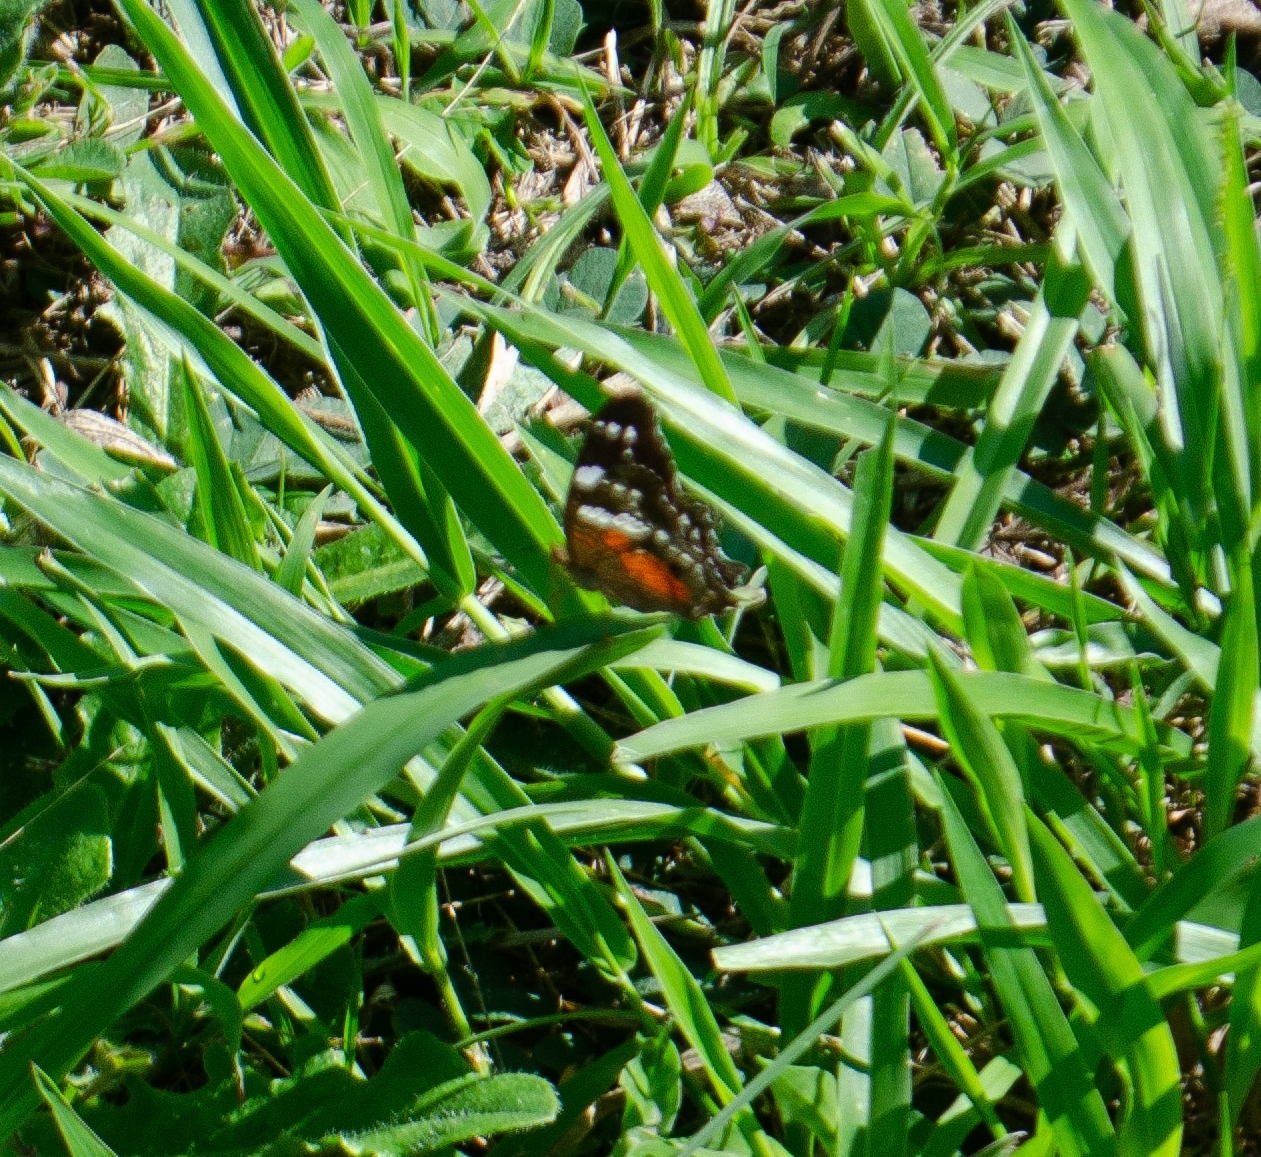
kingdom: Animalia
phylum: Arthropoda
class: Insecta
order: Lepidoptera
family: Nymphalidae
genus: Anartia
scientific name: Anartia amathea
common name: Red peacock
